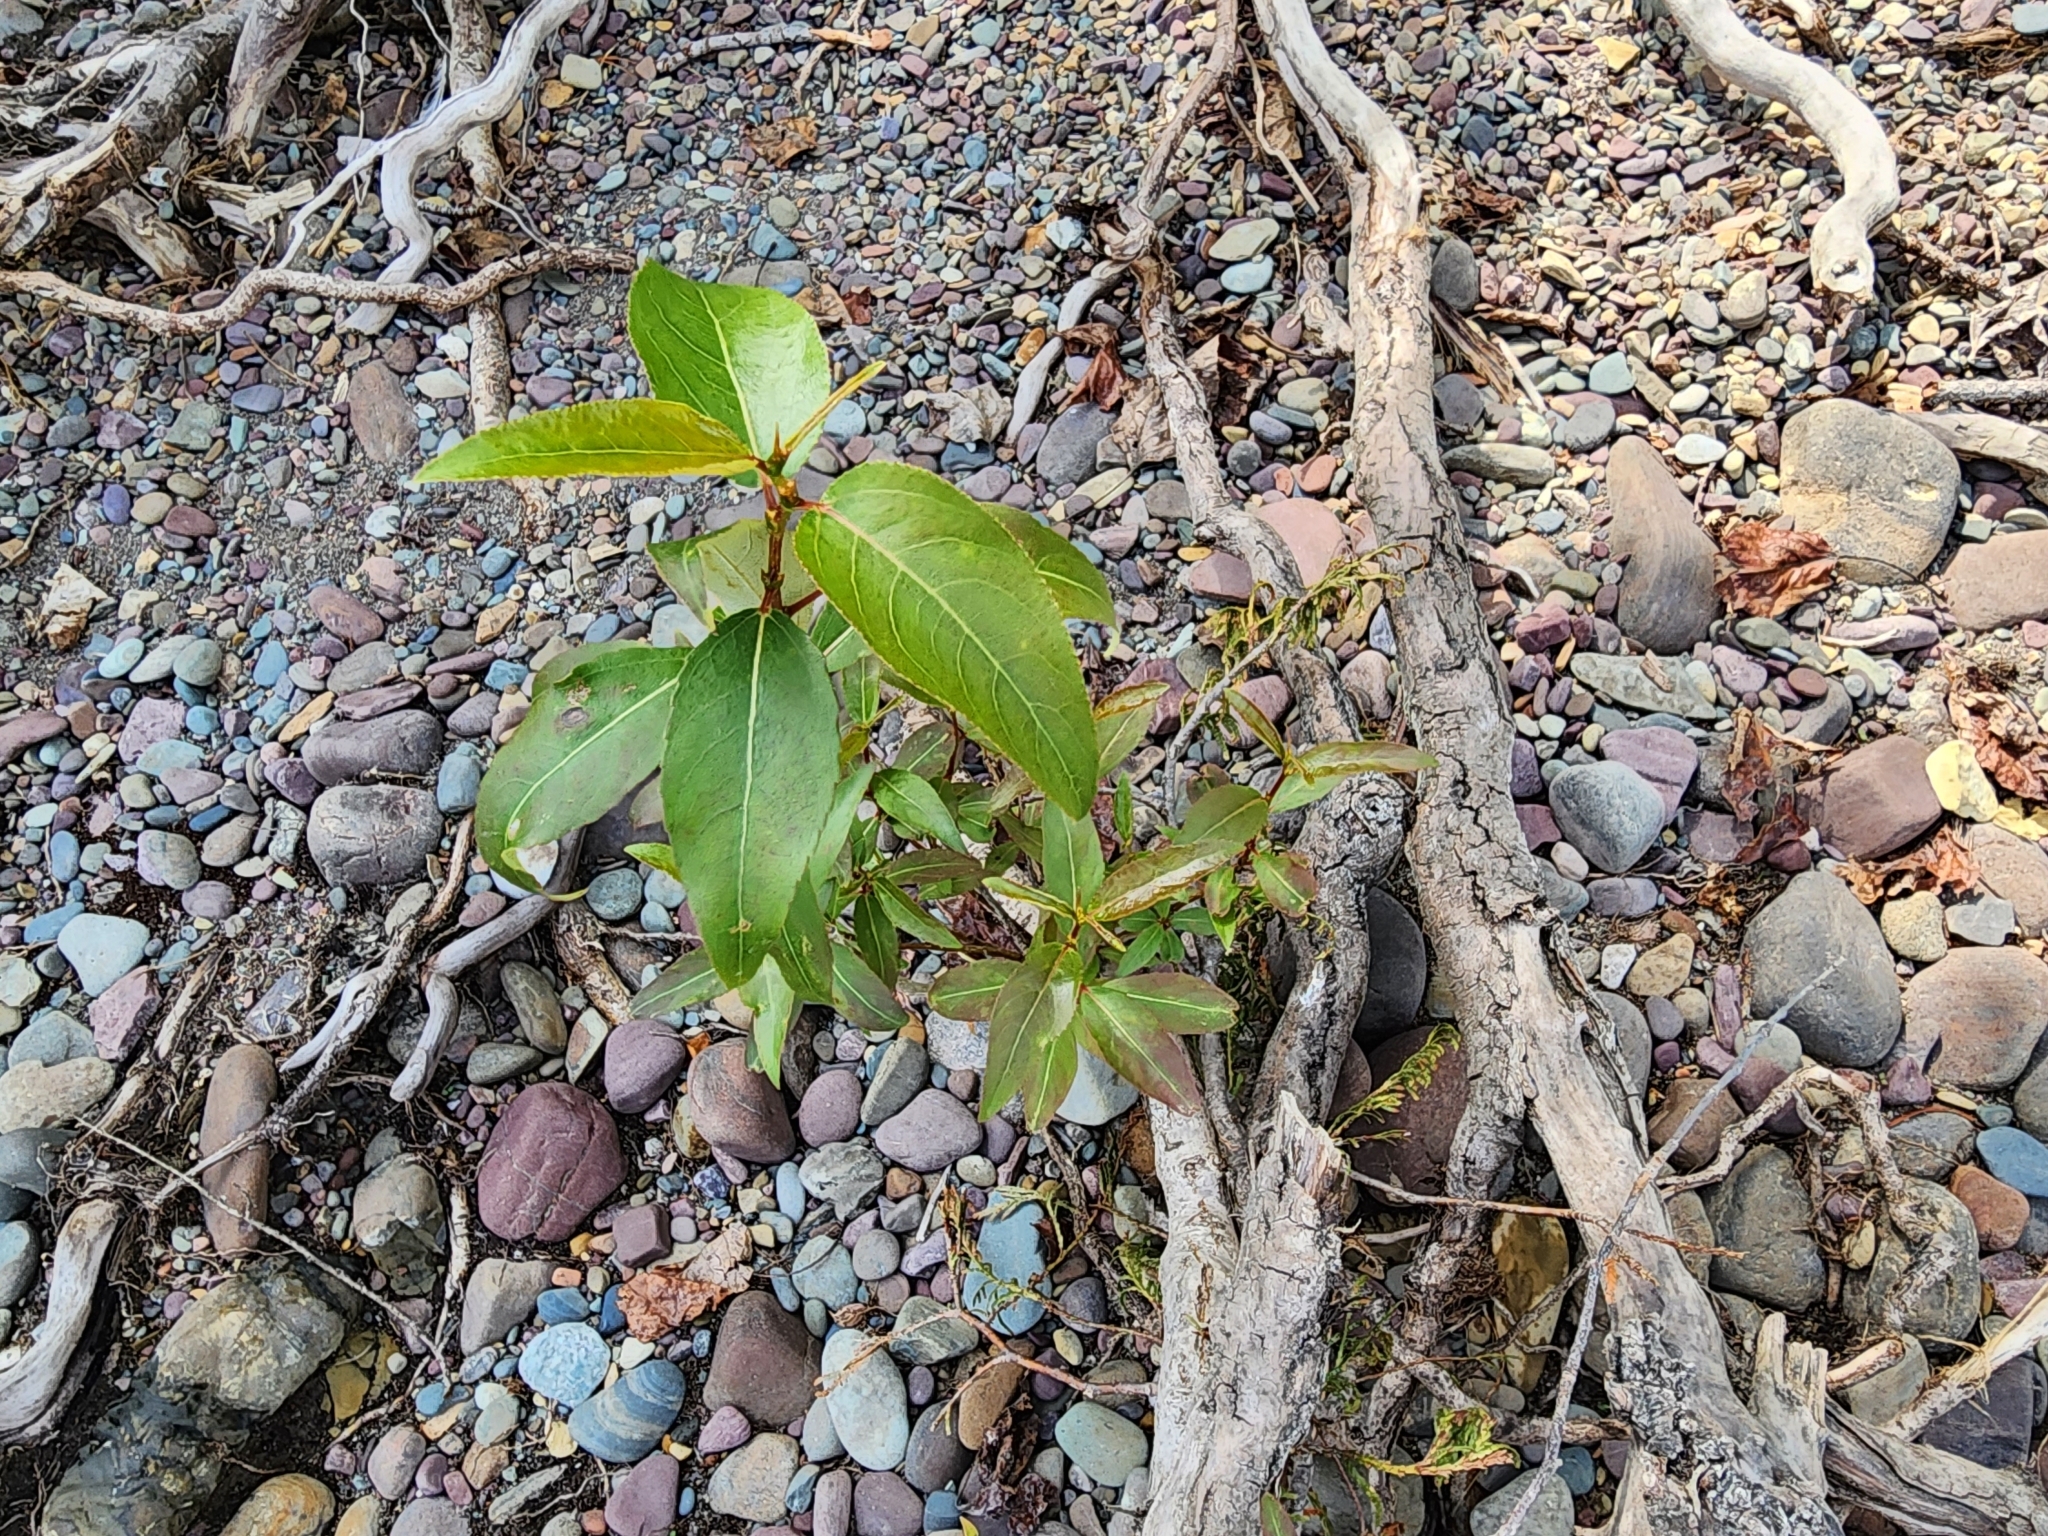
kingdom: Plantae
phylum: Tracheophyta
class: Magnoliopsida
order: Malpighiales
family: Salicaceae
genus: Populus
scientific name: Populus trichocarpa
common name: Black cottonwood
